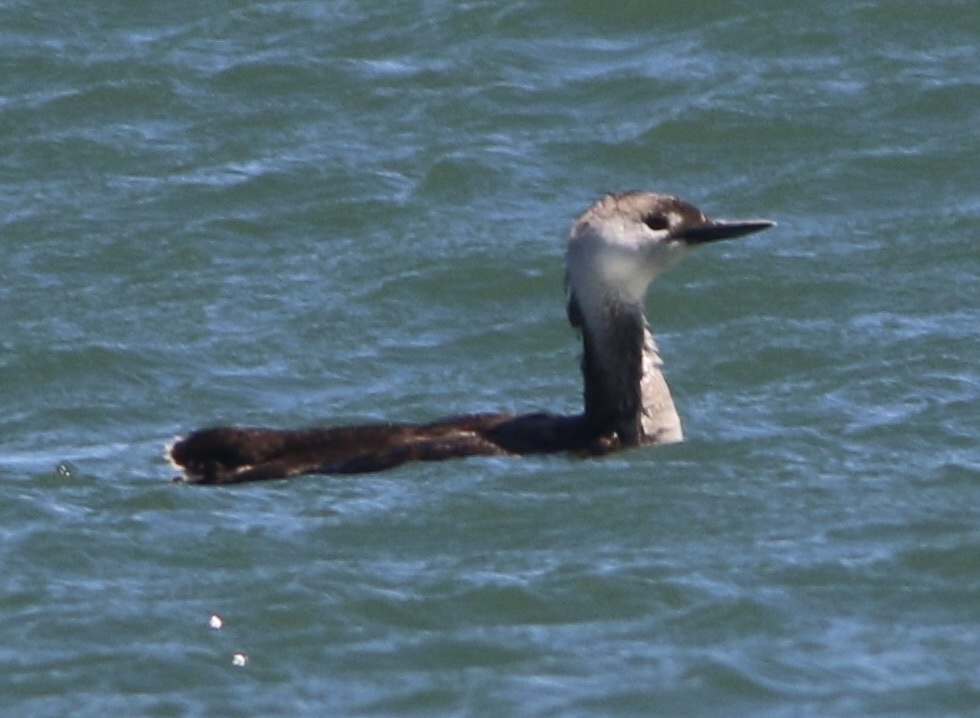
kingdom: Animalia
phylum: Chordata
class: Aves
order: Gaviiformes
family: Gaviidae
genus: Gavia
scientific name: Gavia stellata
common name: Red-throated loon
